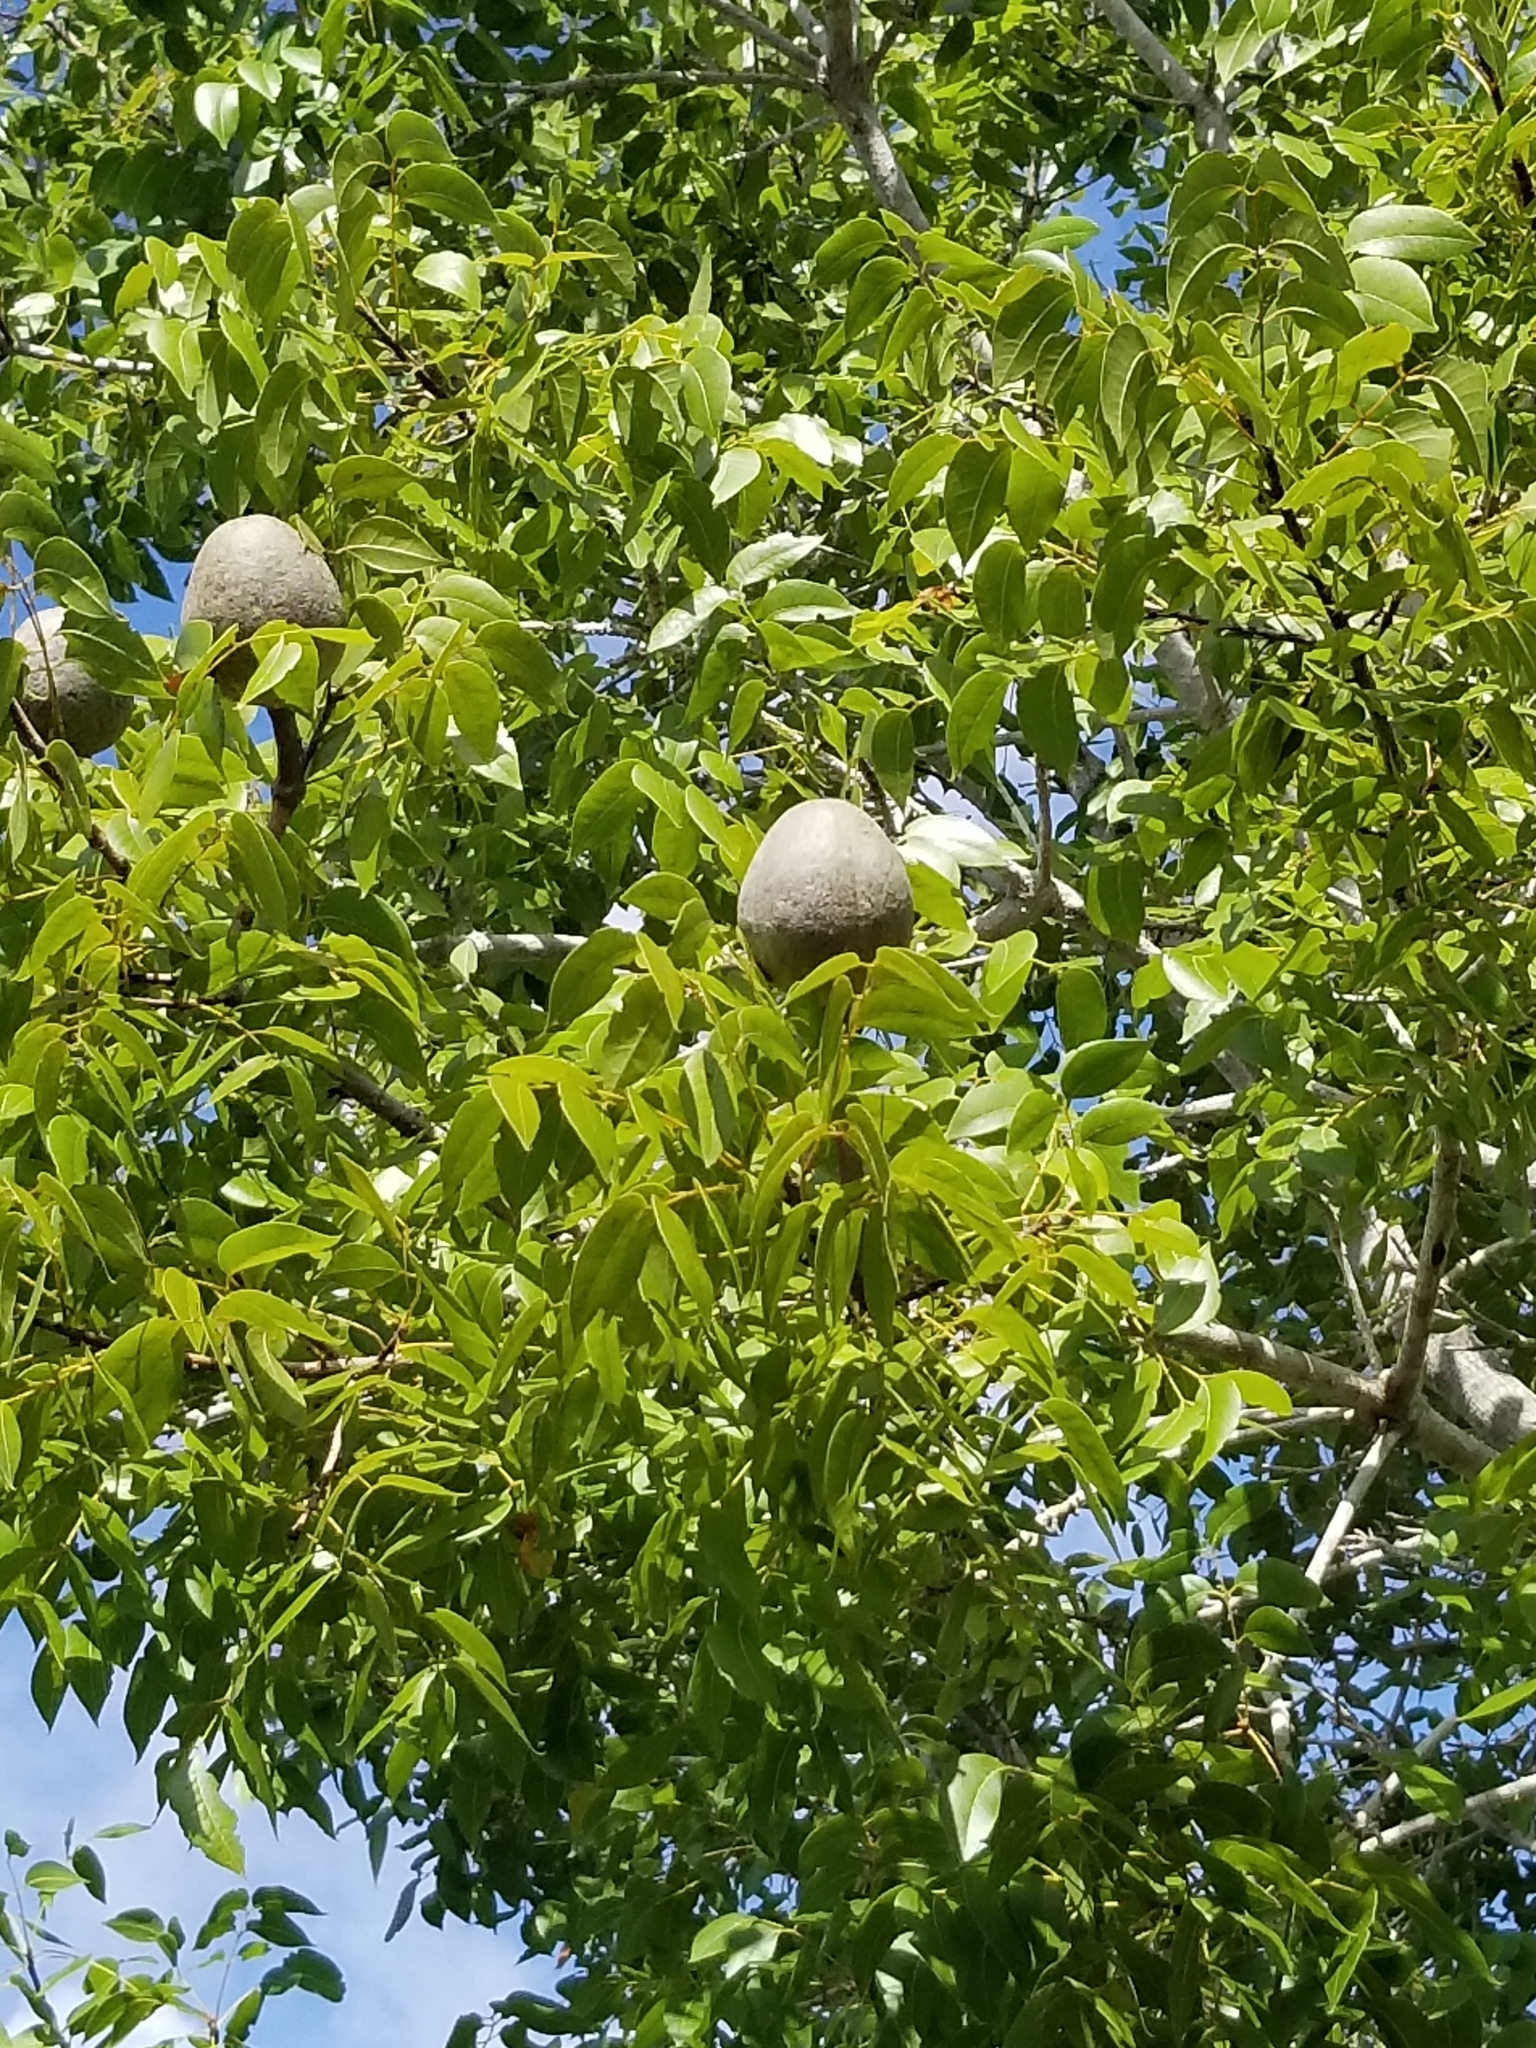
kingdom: Plantae
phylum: Tracheophyta
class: Magnoliopsida
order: Sapindales
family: Meliaceae
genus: Swietenia
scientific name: Swietenia mahagoni
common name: West indian mahogany
